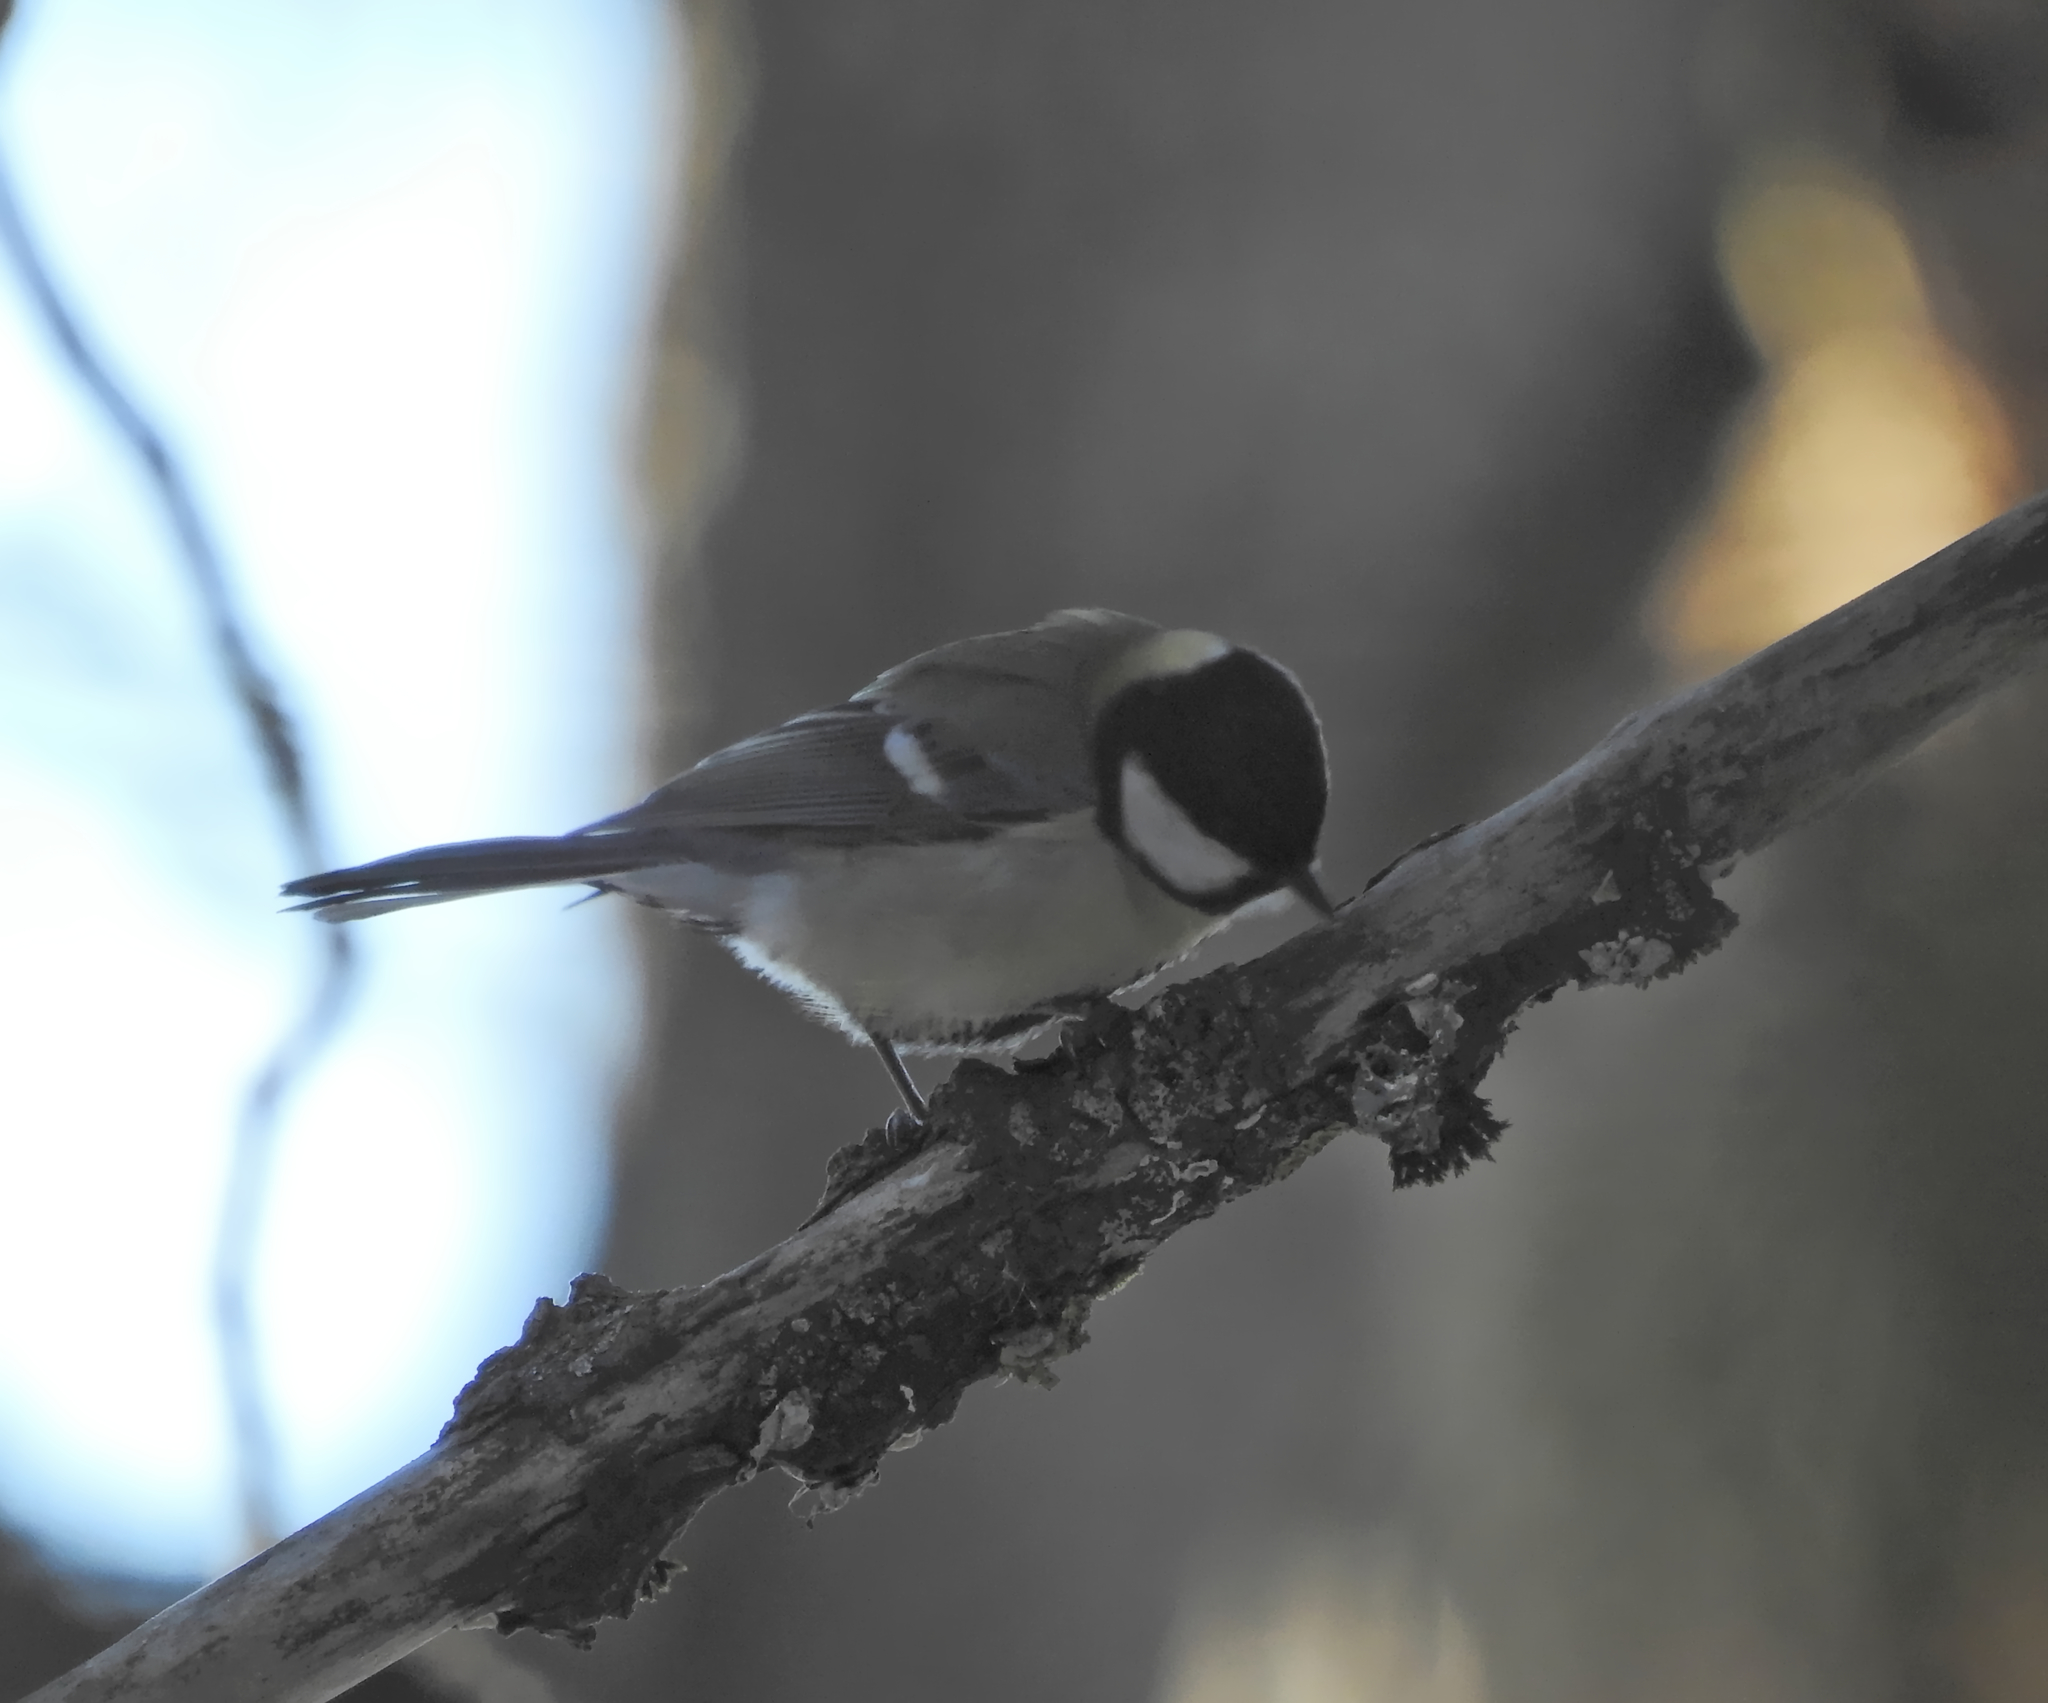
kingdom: Animalia
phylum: Chordata
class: Aves
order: Passeriformes
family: Paridae
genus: Parus
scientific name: Parus major
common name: Great tit
